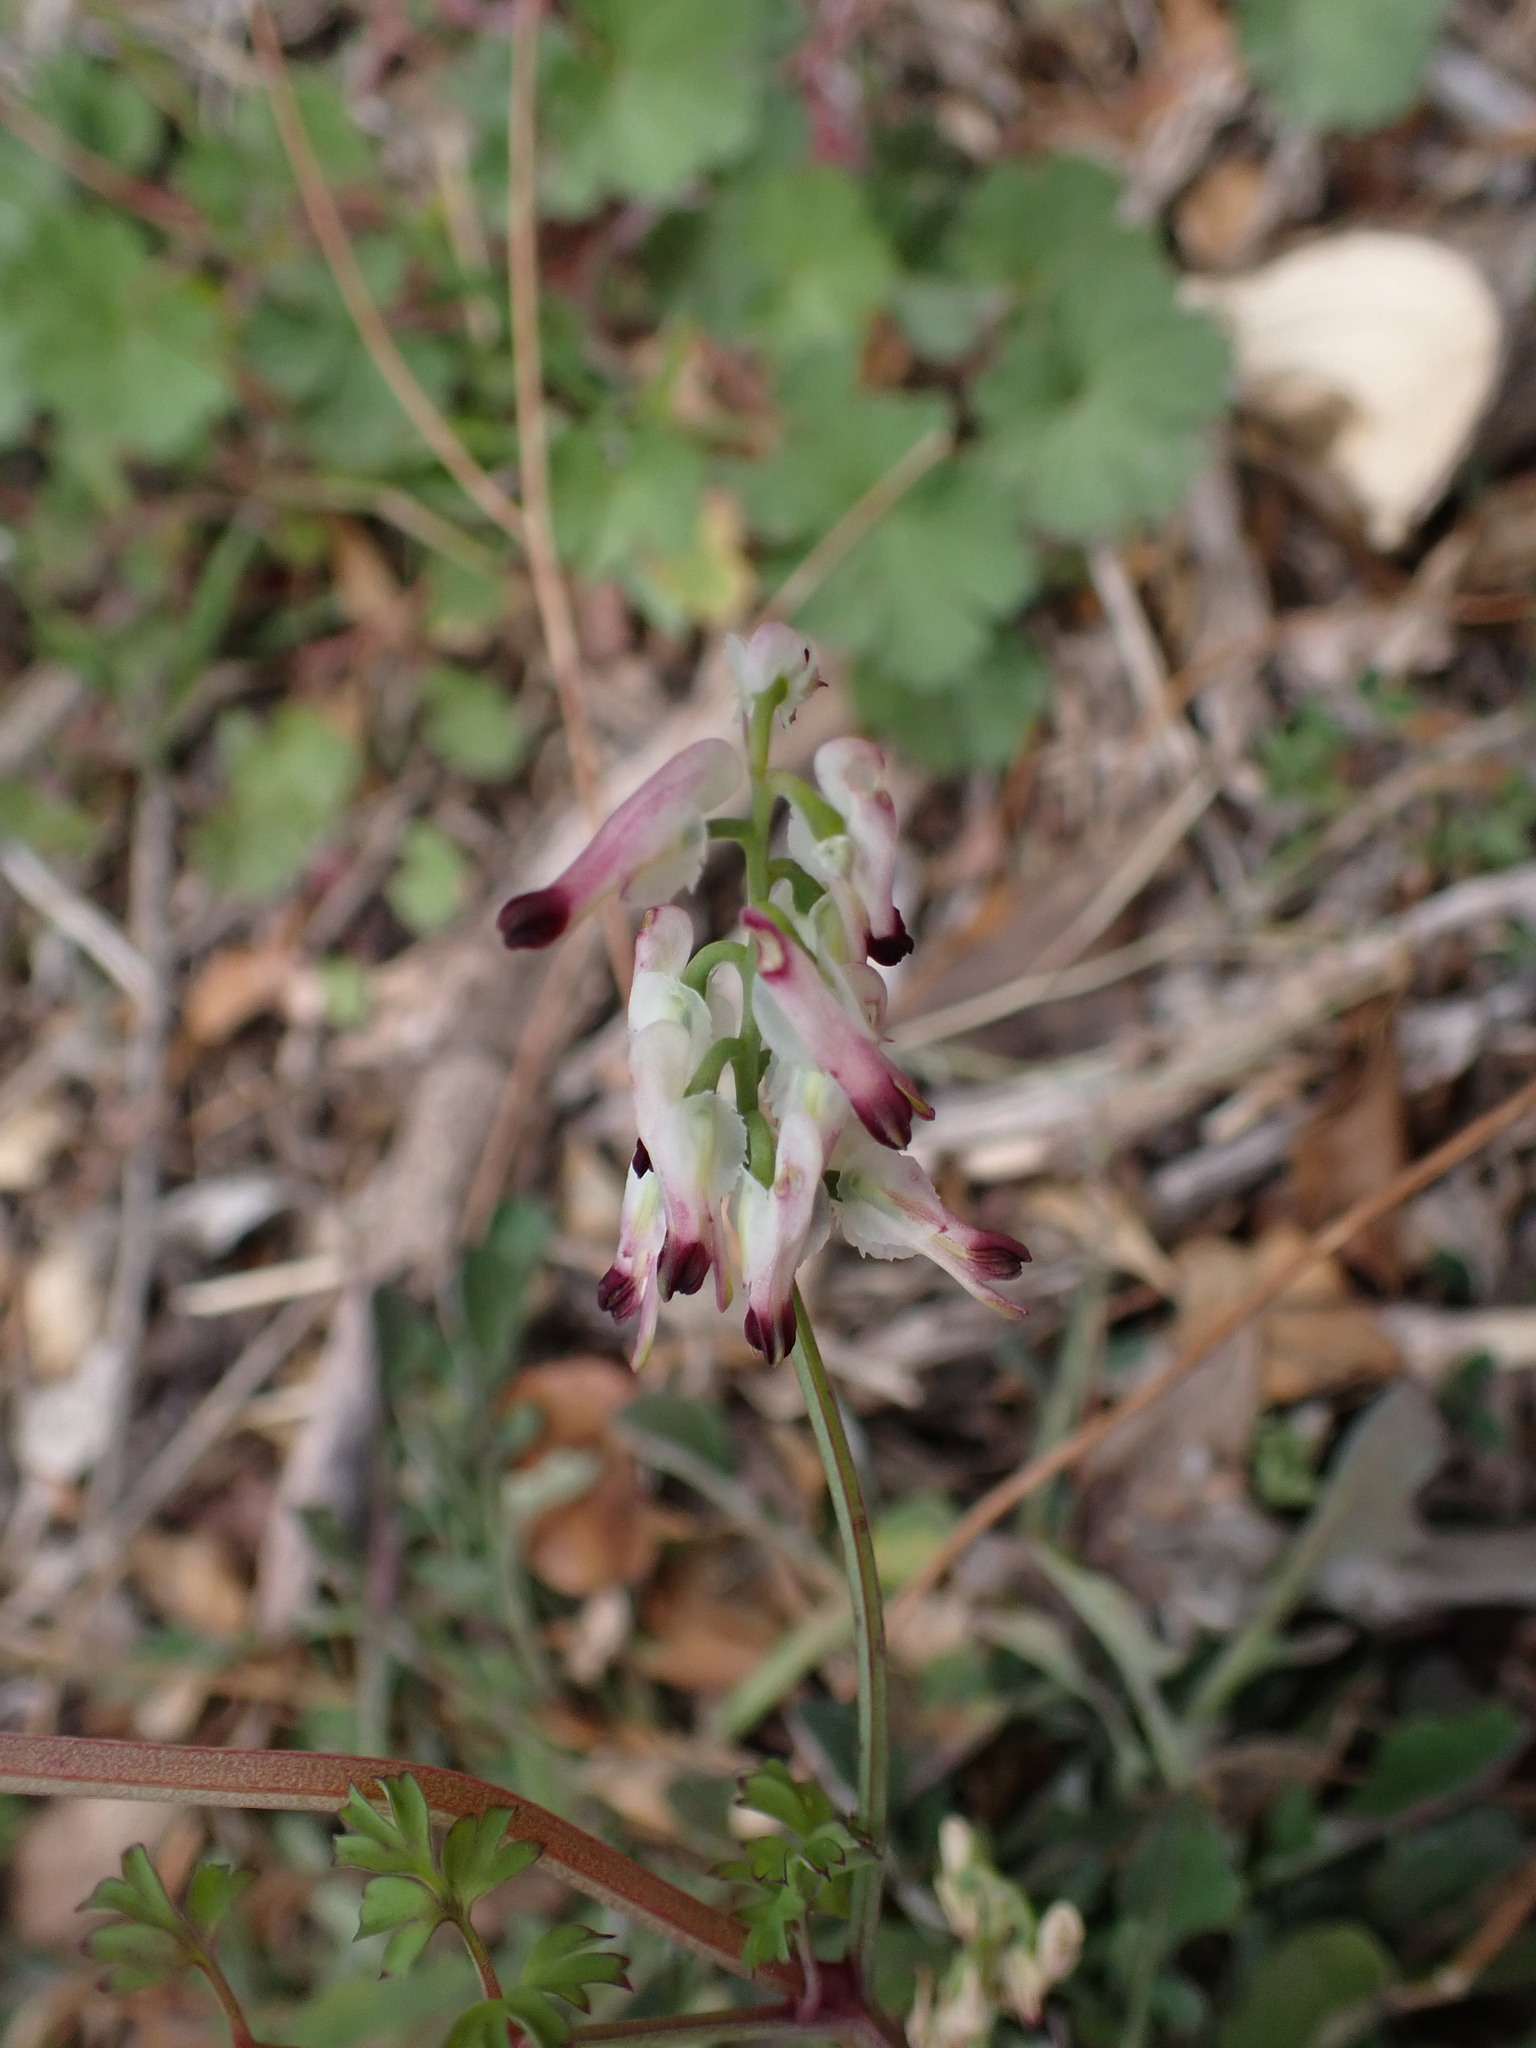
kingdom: Plantae
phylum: Tracheophyta
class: Magnoliopsida
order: Ranunculales
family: Papaveraceae
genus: Fumaria
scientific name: Fumaria capreolata
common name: White ramping-fumitory
